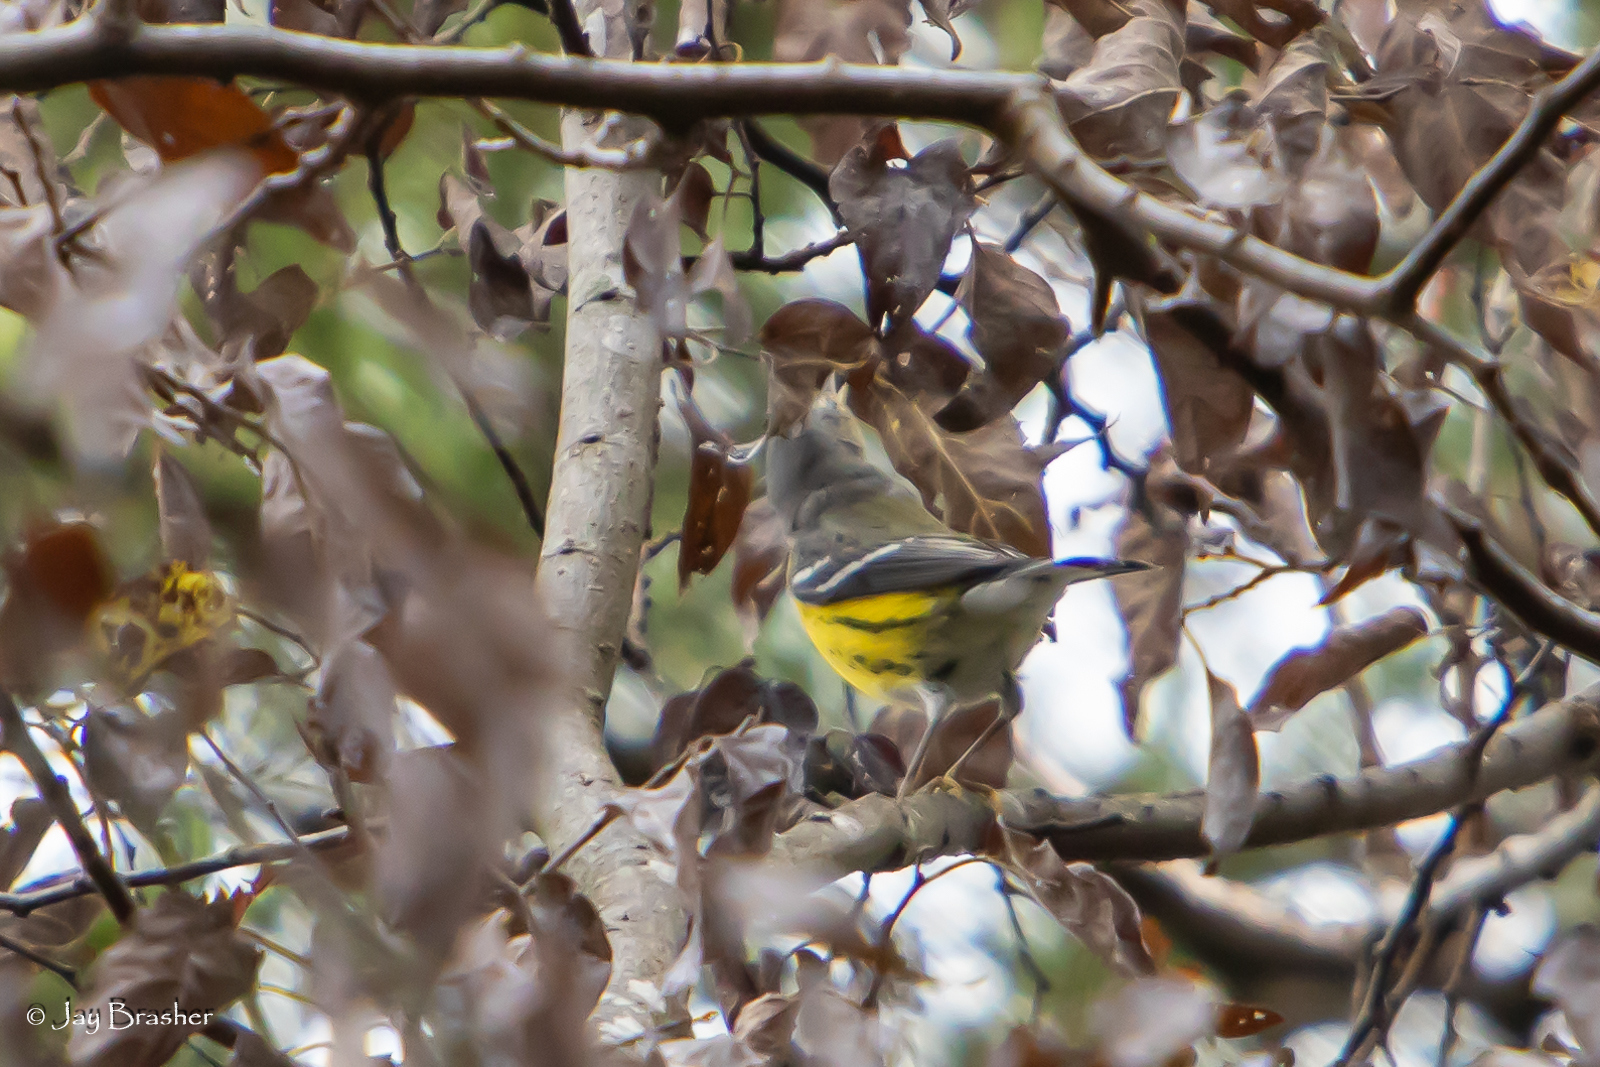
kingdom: Animalia
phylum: Chordata
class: Aves
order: Passeriformes
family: Parulidae
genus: Setophaga
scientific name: Setophaga magnolia
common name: Magnolia warbler
